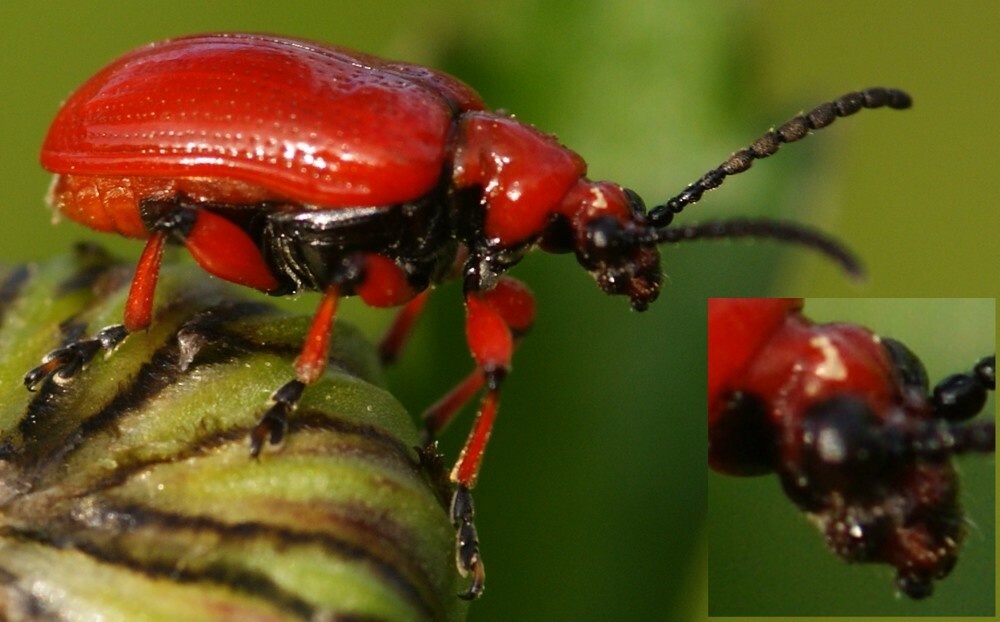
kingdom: Animalia
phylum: Arthropoda
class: Insecta
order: Coleoptera
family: Chrysomelidae
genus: Lilioceris
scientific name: Lilioceris merdigera
